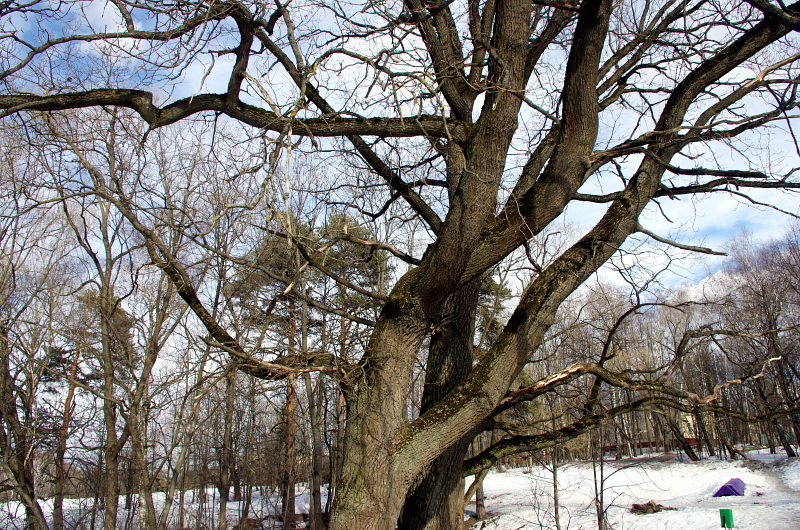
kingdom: Plantae
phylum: Tracheophyta
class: Magnoliopsida
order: Fagales
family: Fagaceae
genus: Quercus
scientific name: Quercus robur
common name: Pedunculate oak
